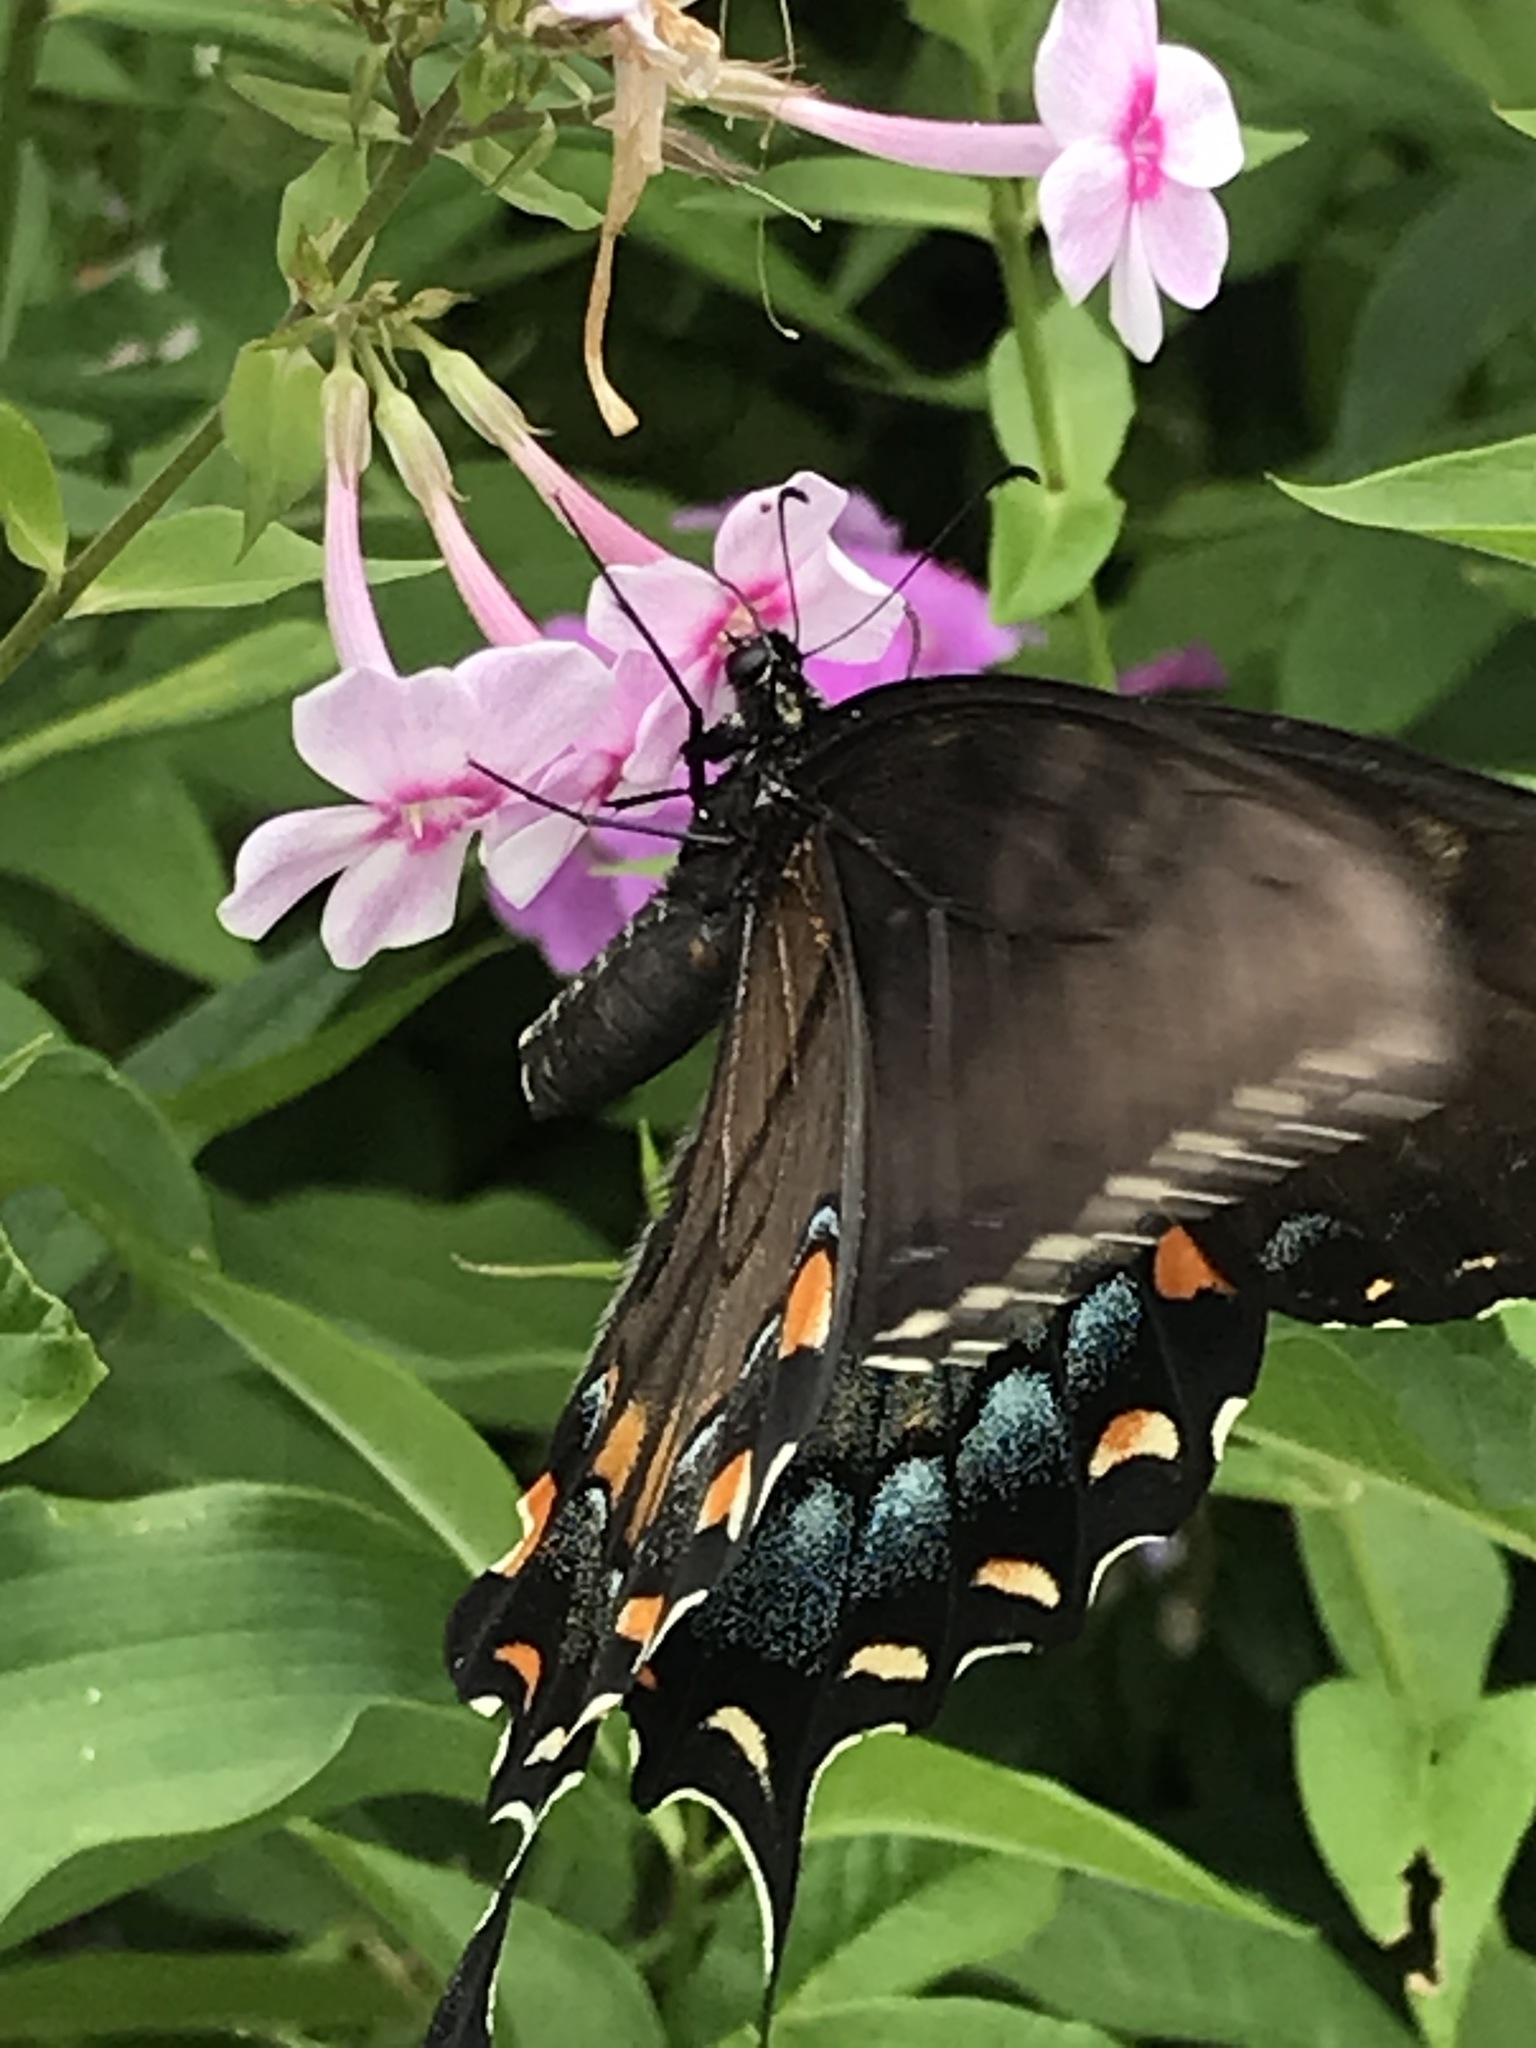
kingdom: Animalia
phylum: Arthropoda
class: Insecta
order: Lepidoptera
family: Papilionidae
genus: Papilio
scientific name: Papilio glaucus
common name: Tiger swallowtail
